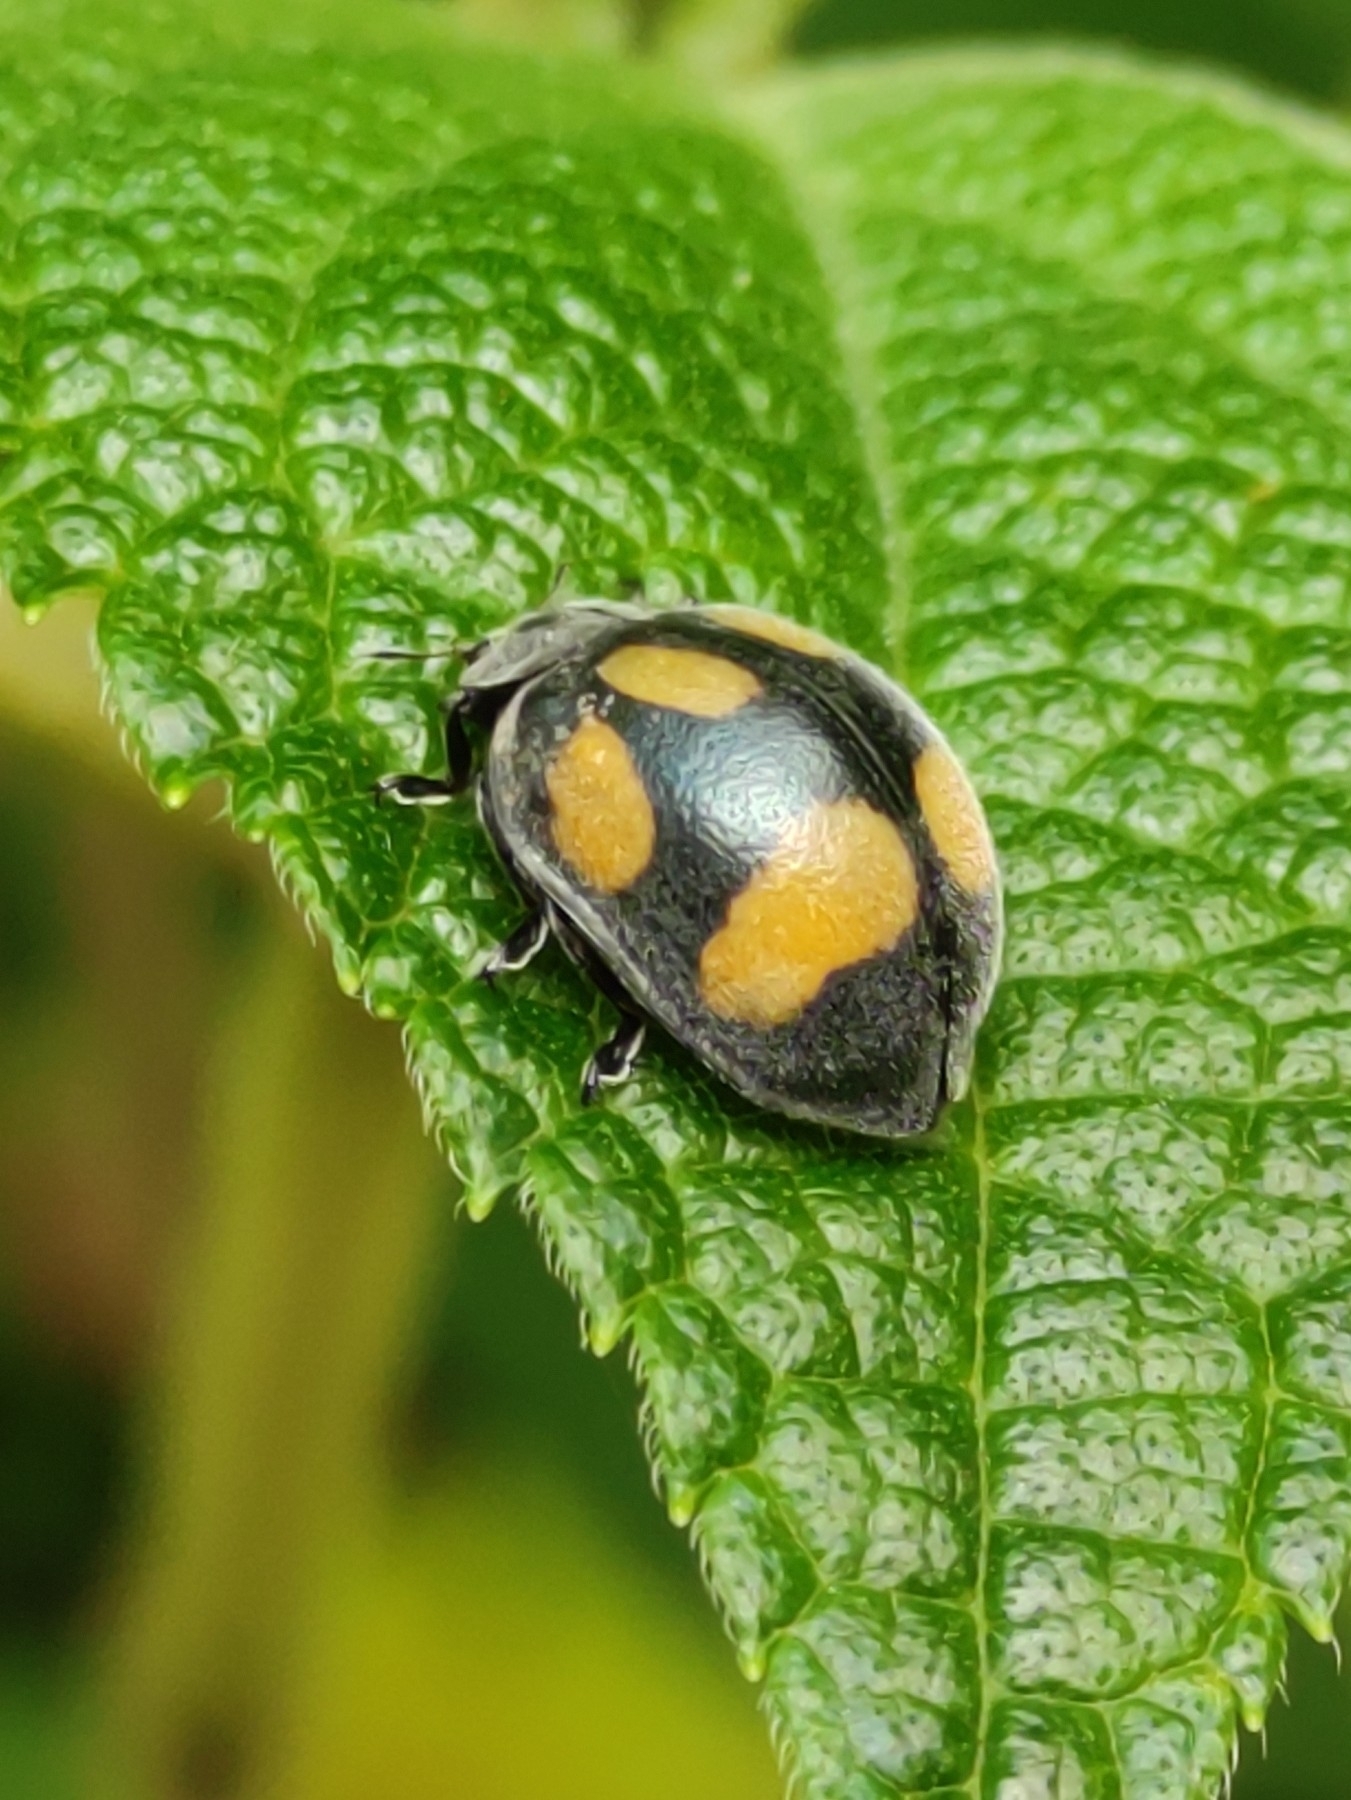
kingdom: Animalia
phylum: Arthropoda
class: Insecta
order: Coleoptera
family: Coccinellidae
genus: Epilachna
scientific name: Epilachna
